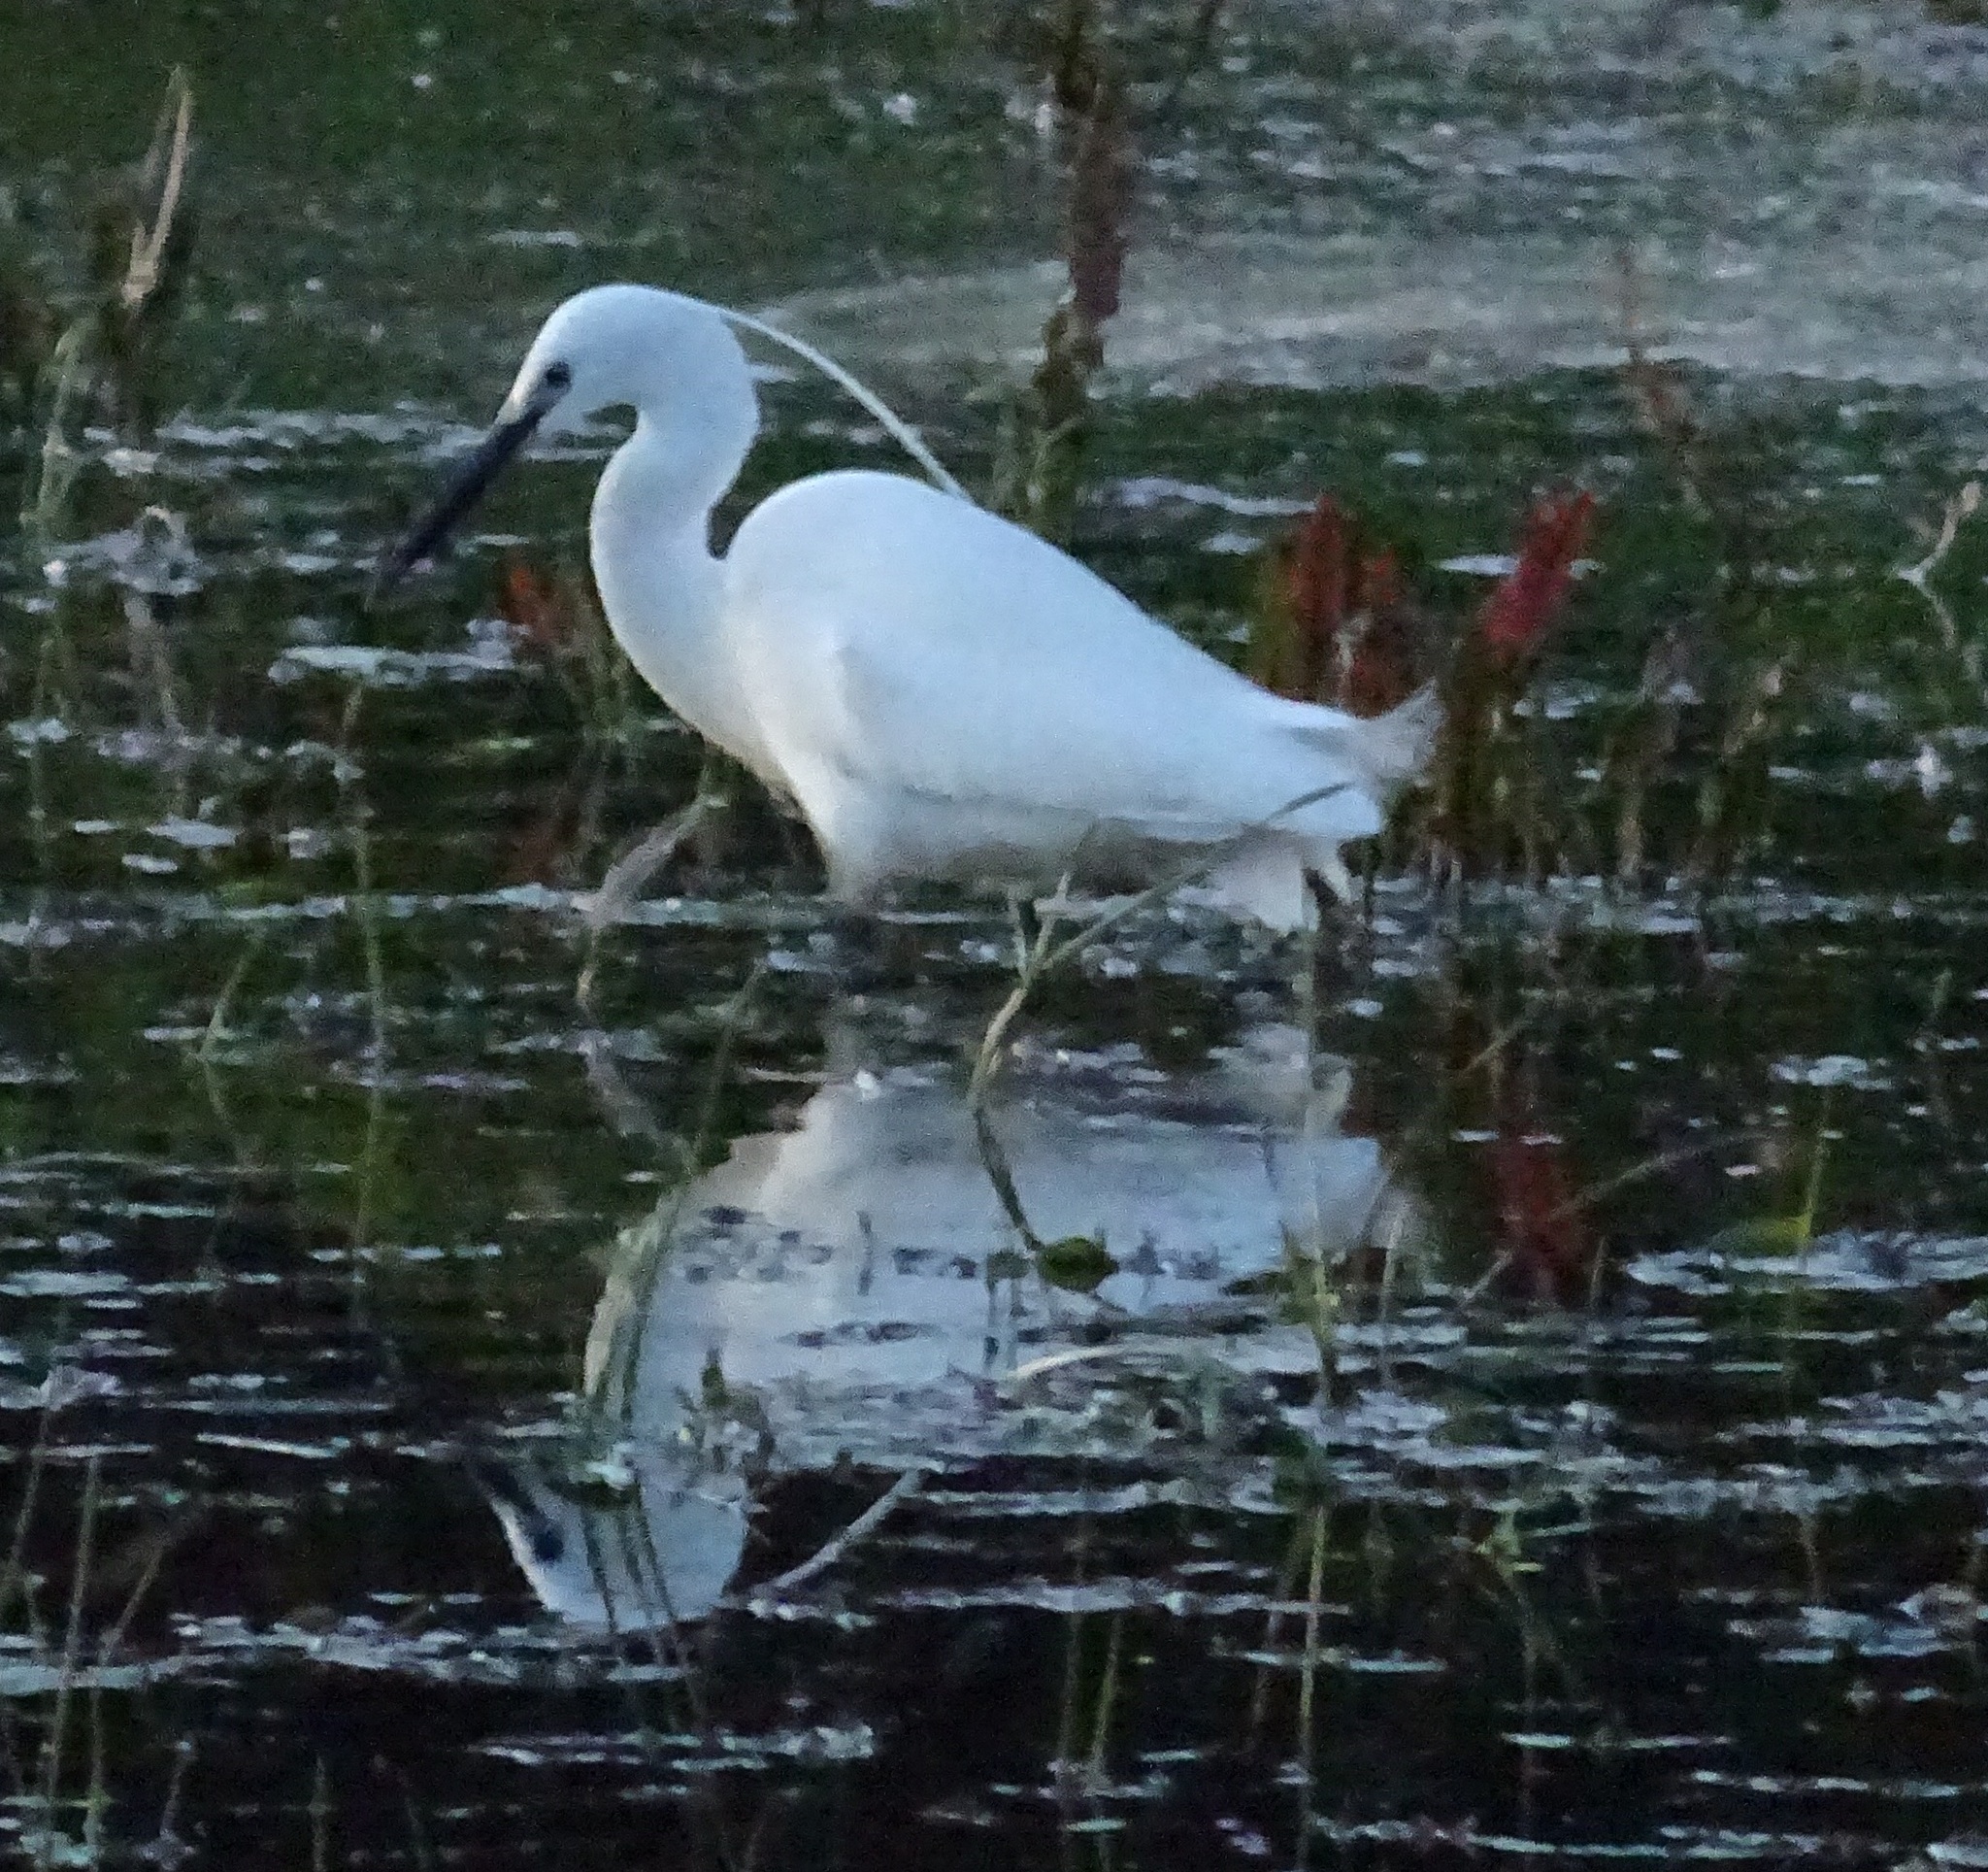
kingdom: Animalia
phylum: Chordata
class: Aves
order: Pelecaniformes
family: Ardeidae
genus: Egretta
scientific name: Egretta garzetta
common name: Little egret
